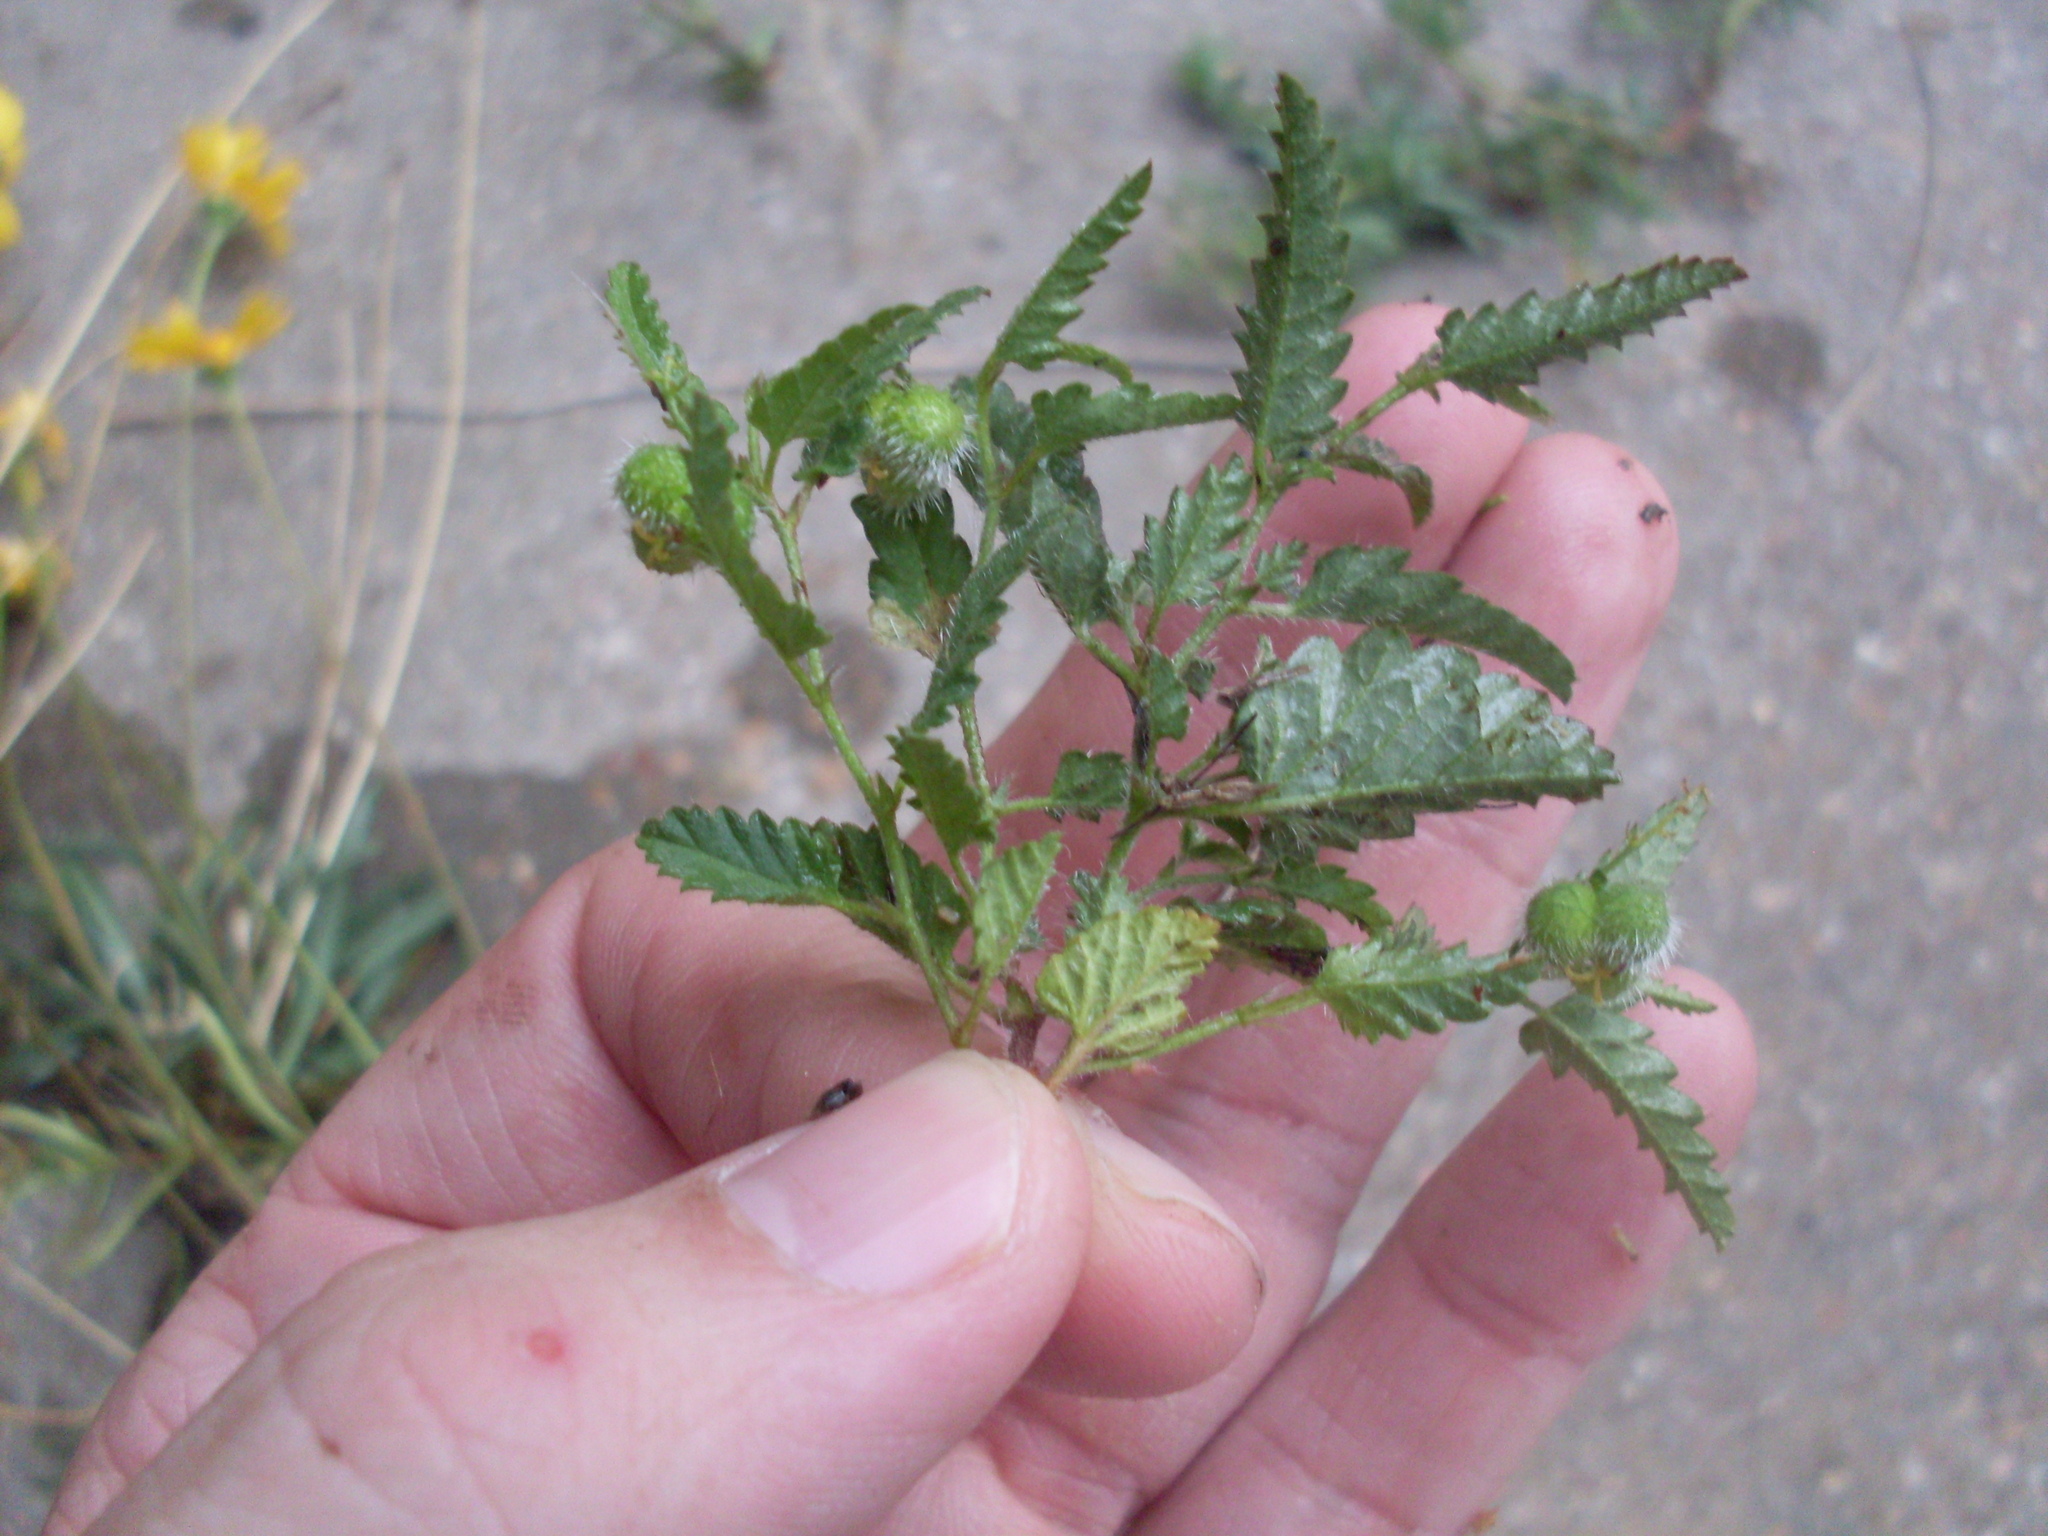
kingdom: Plantae
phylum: Tracheophyta
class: Magnoliopsida
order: Malpighiales
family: Euphorbiaceae
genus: Tragia
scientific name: Tragia ramosa
